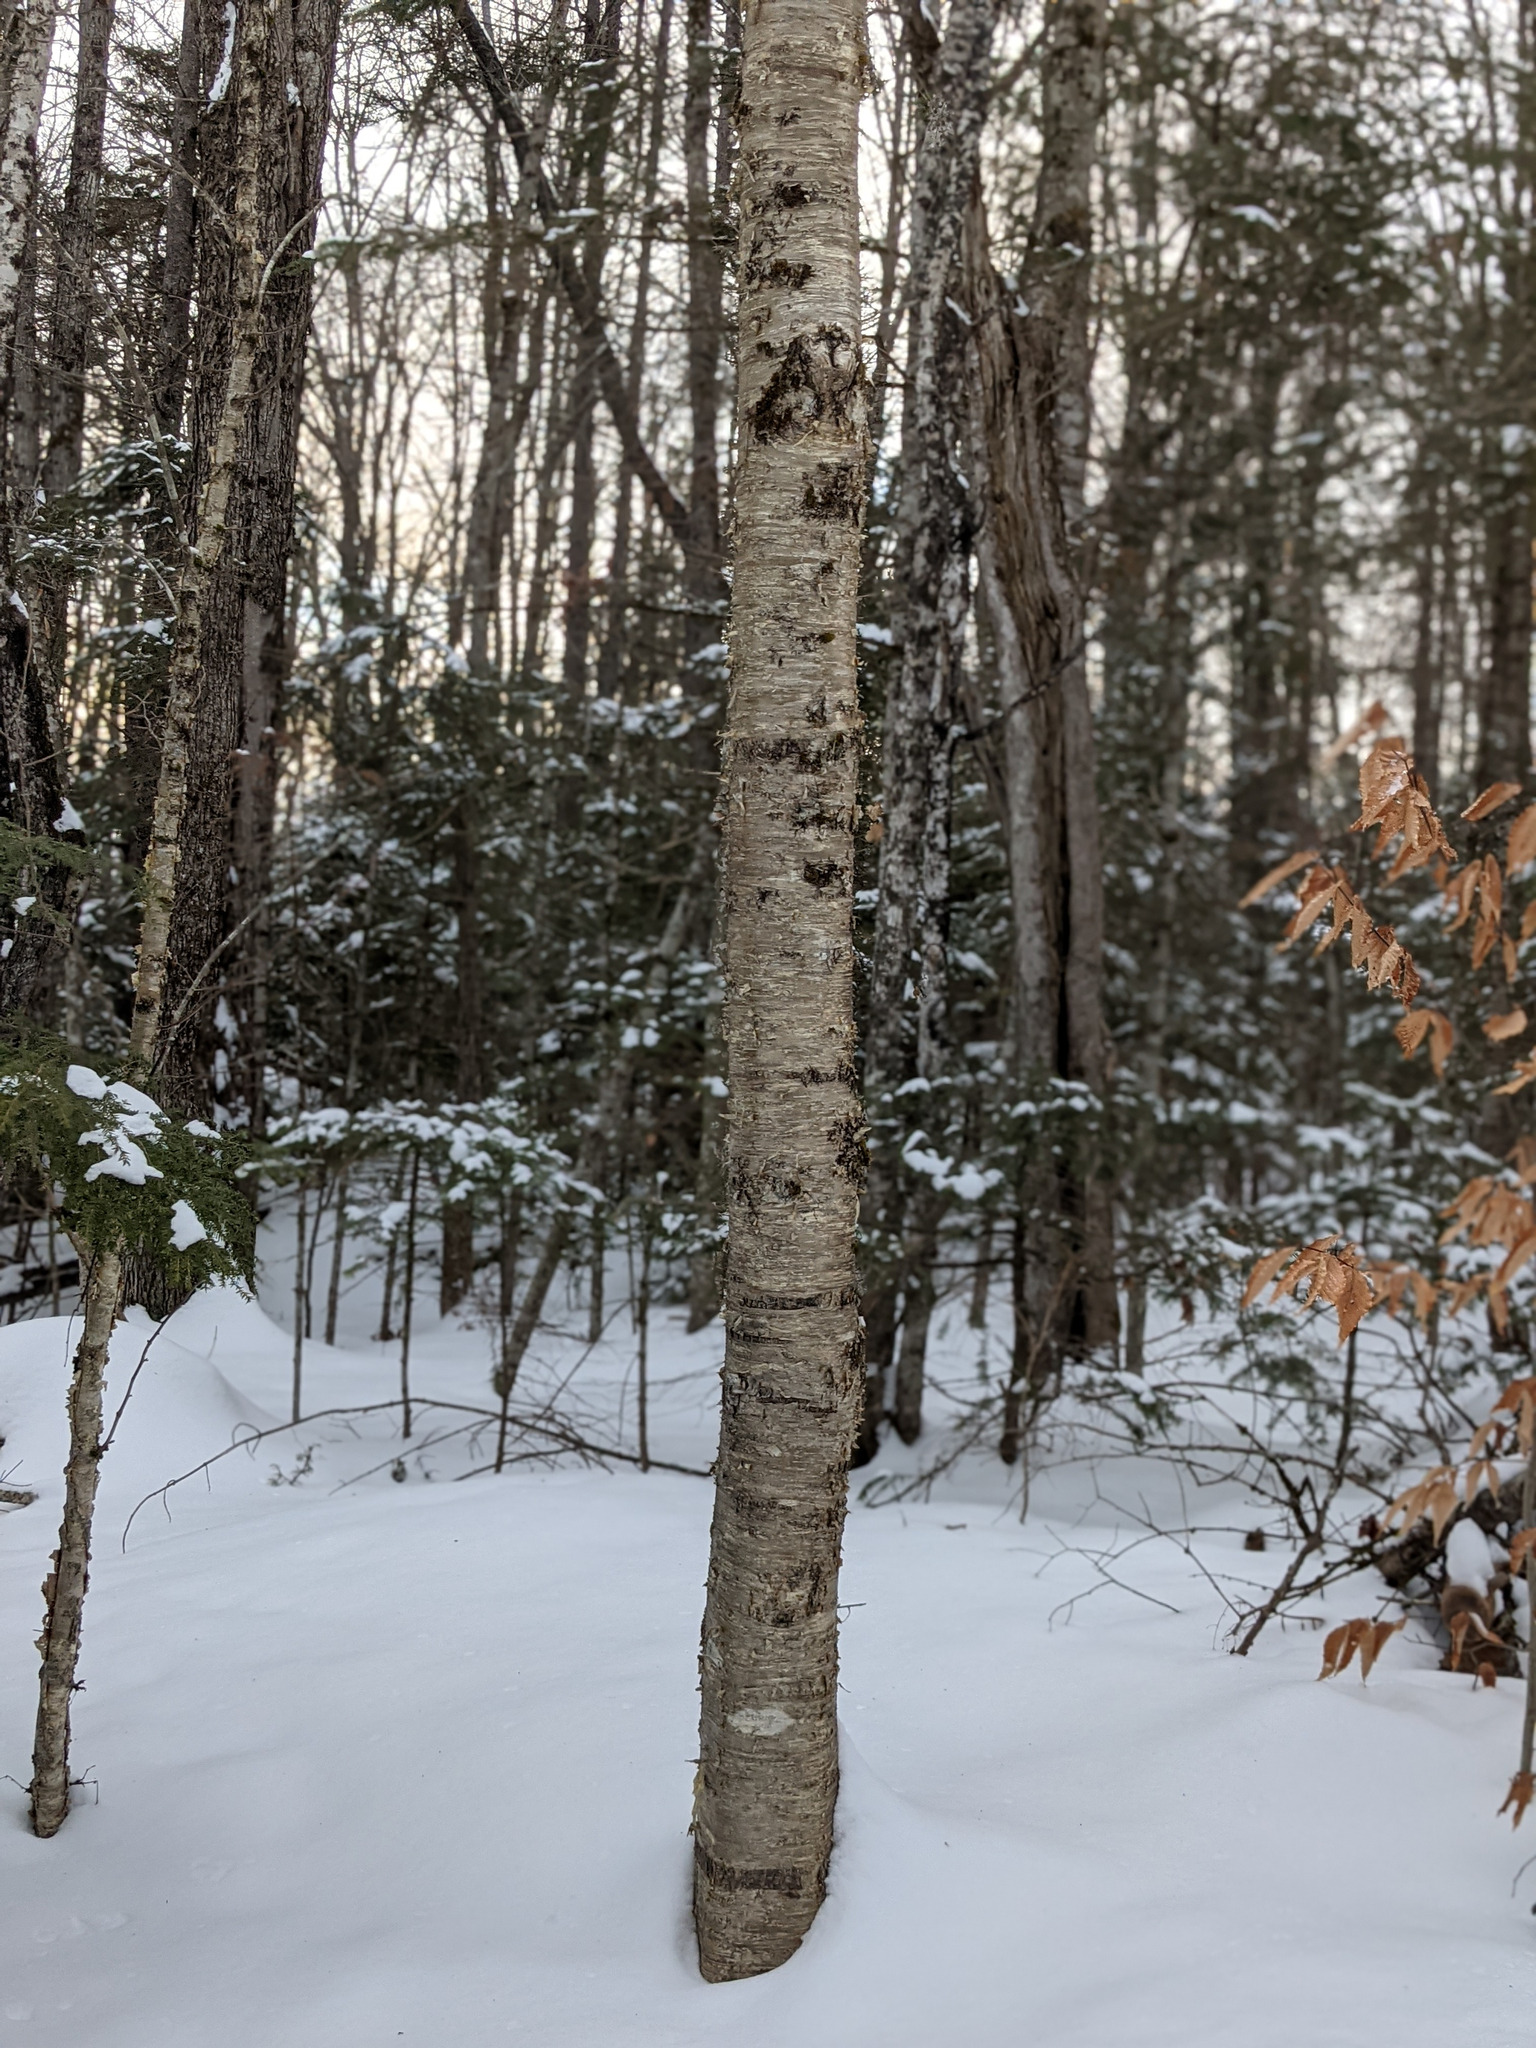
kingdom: Plantae
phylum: Tracheophyta
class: Magnoliopsida
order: Fagales
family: Betulaceae
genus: Betula
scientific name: Betula alleghaniensis
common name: Yellow birch
